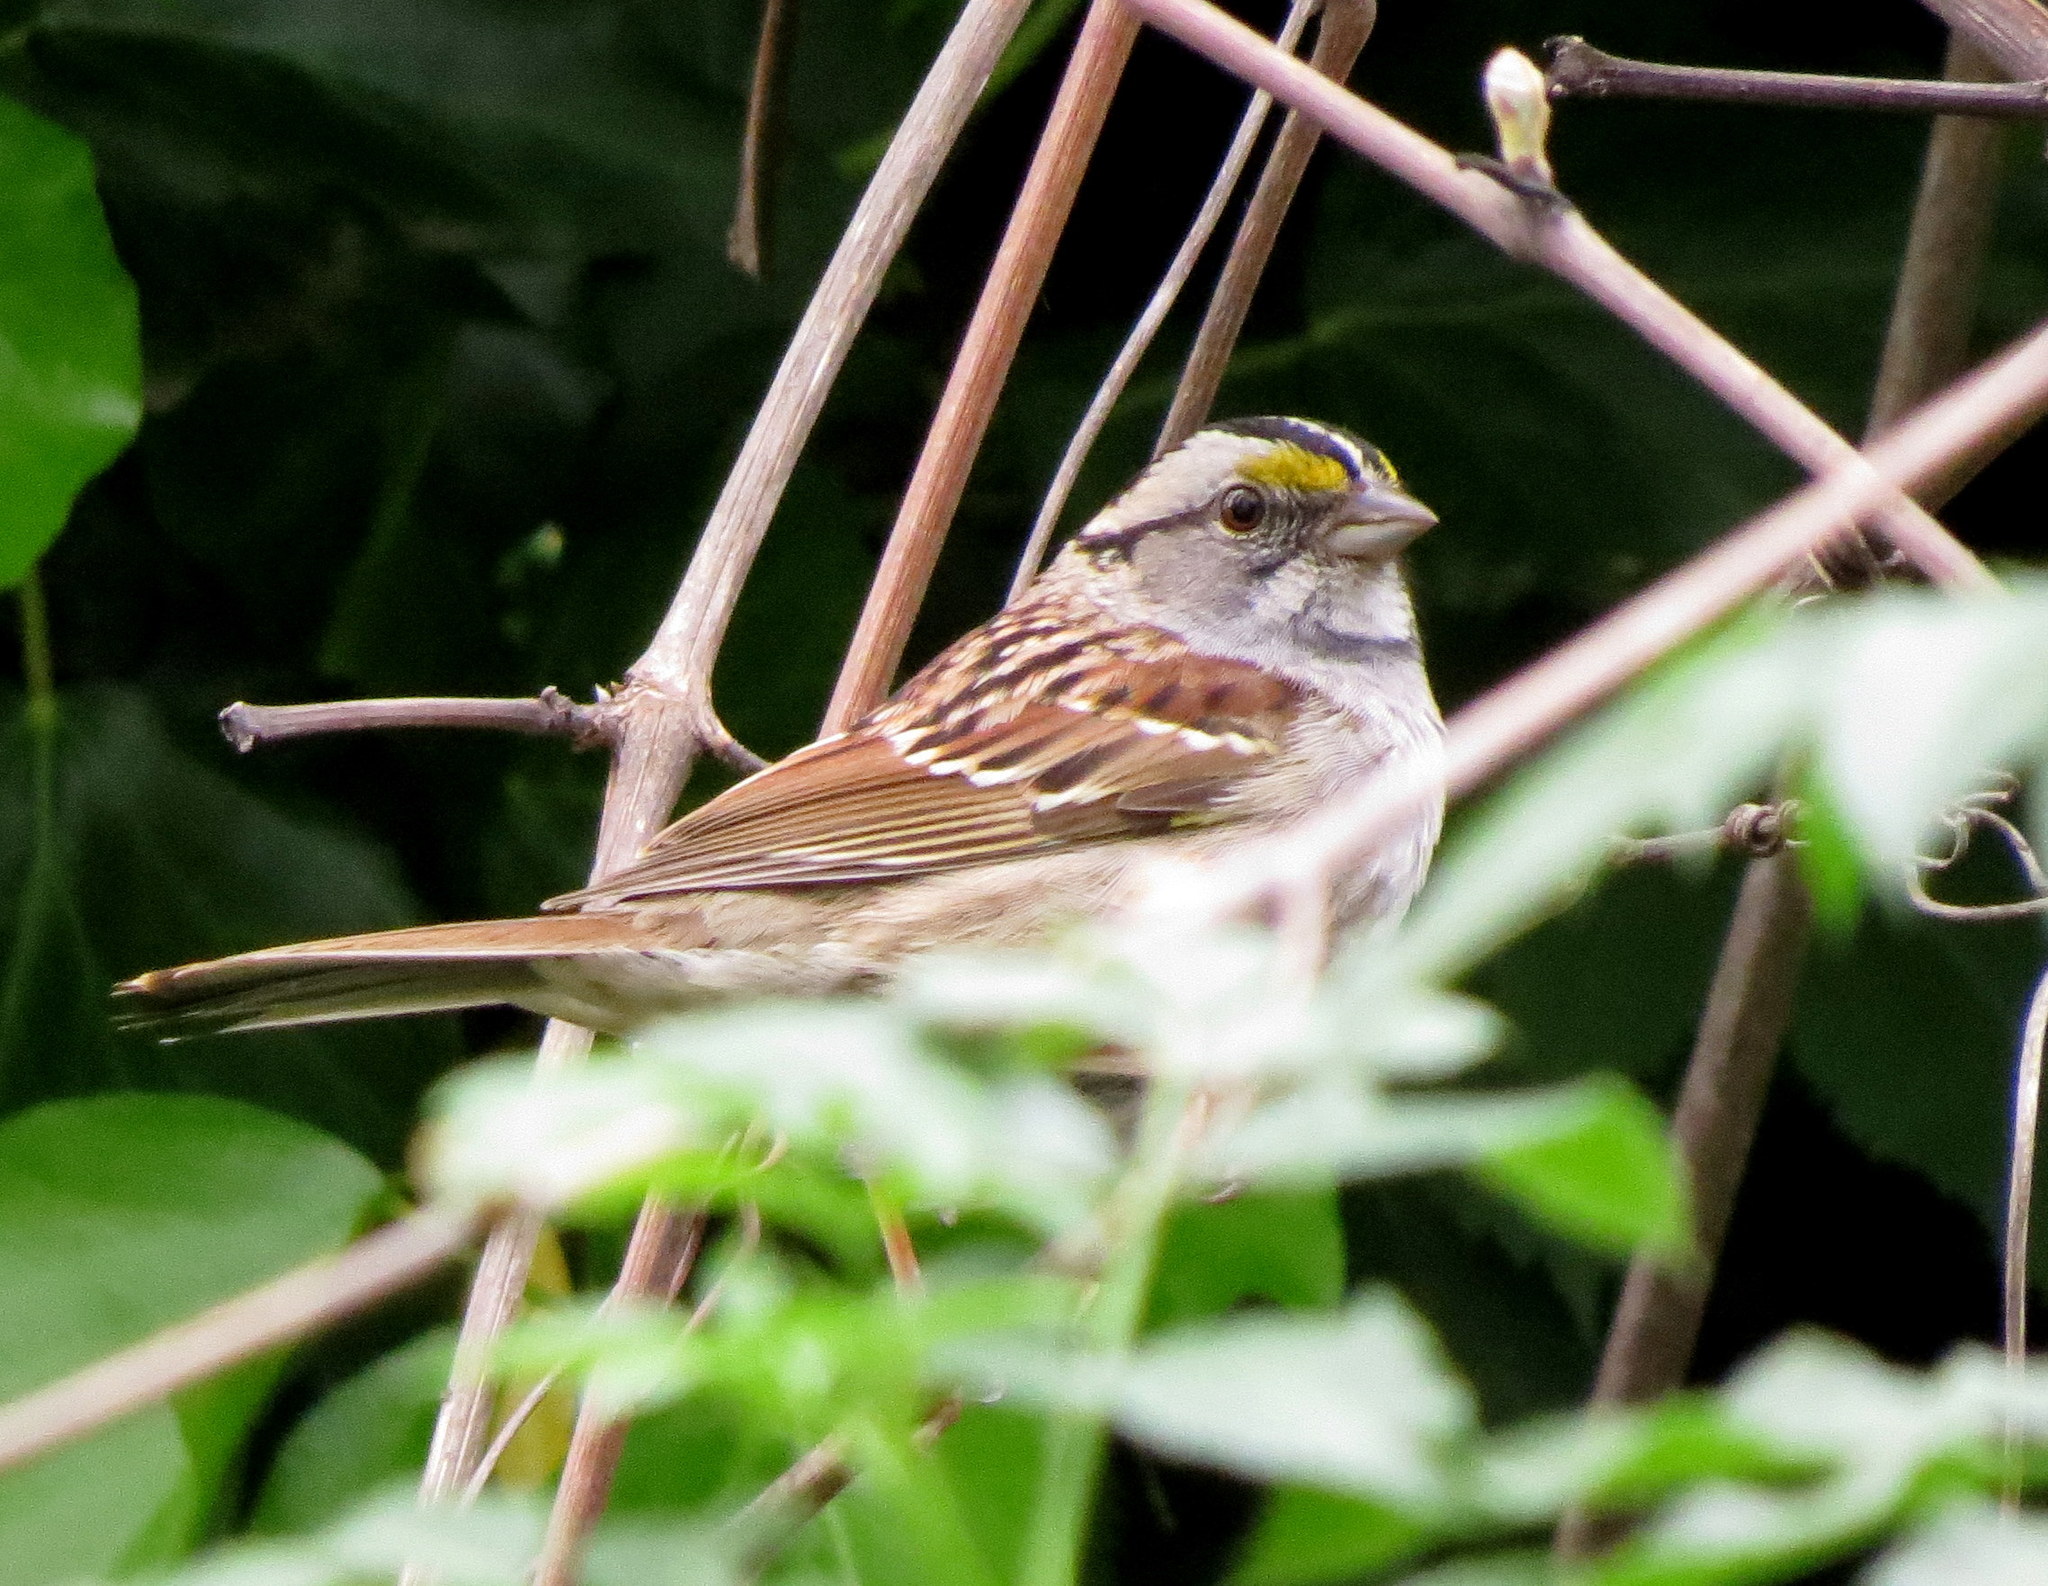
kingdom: Animalia
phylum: Chordata
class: Aves
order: Passeriformes
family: Passerellidae
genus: Zonotrichia
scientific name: Zonotrichia albicollis
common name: White-throated sparrow
